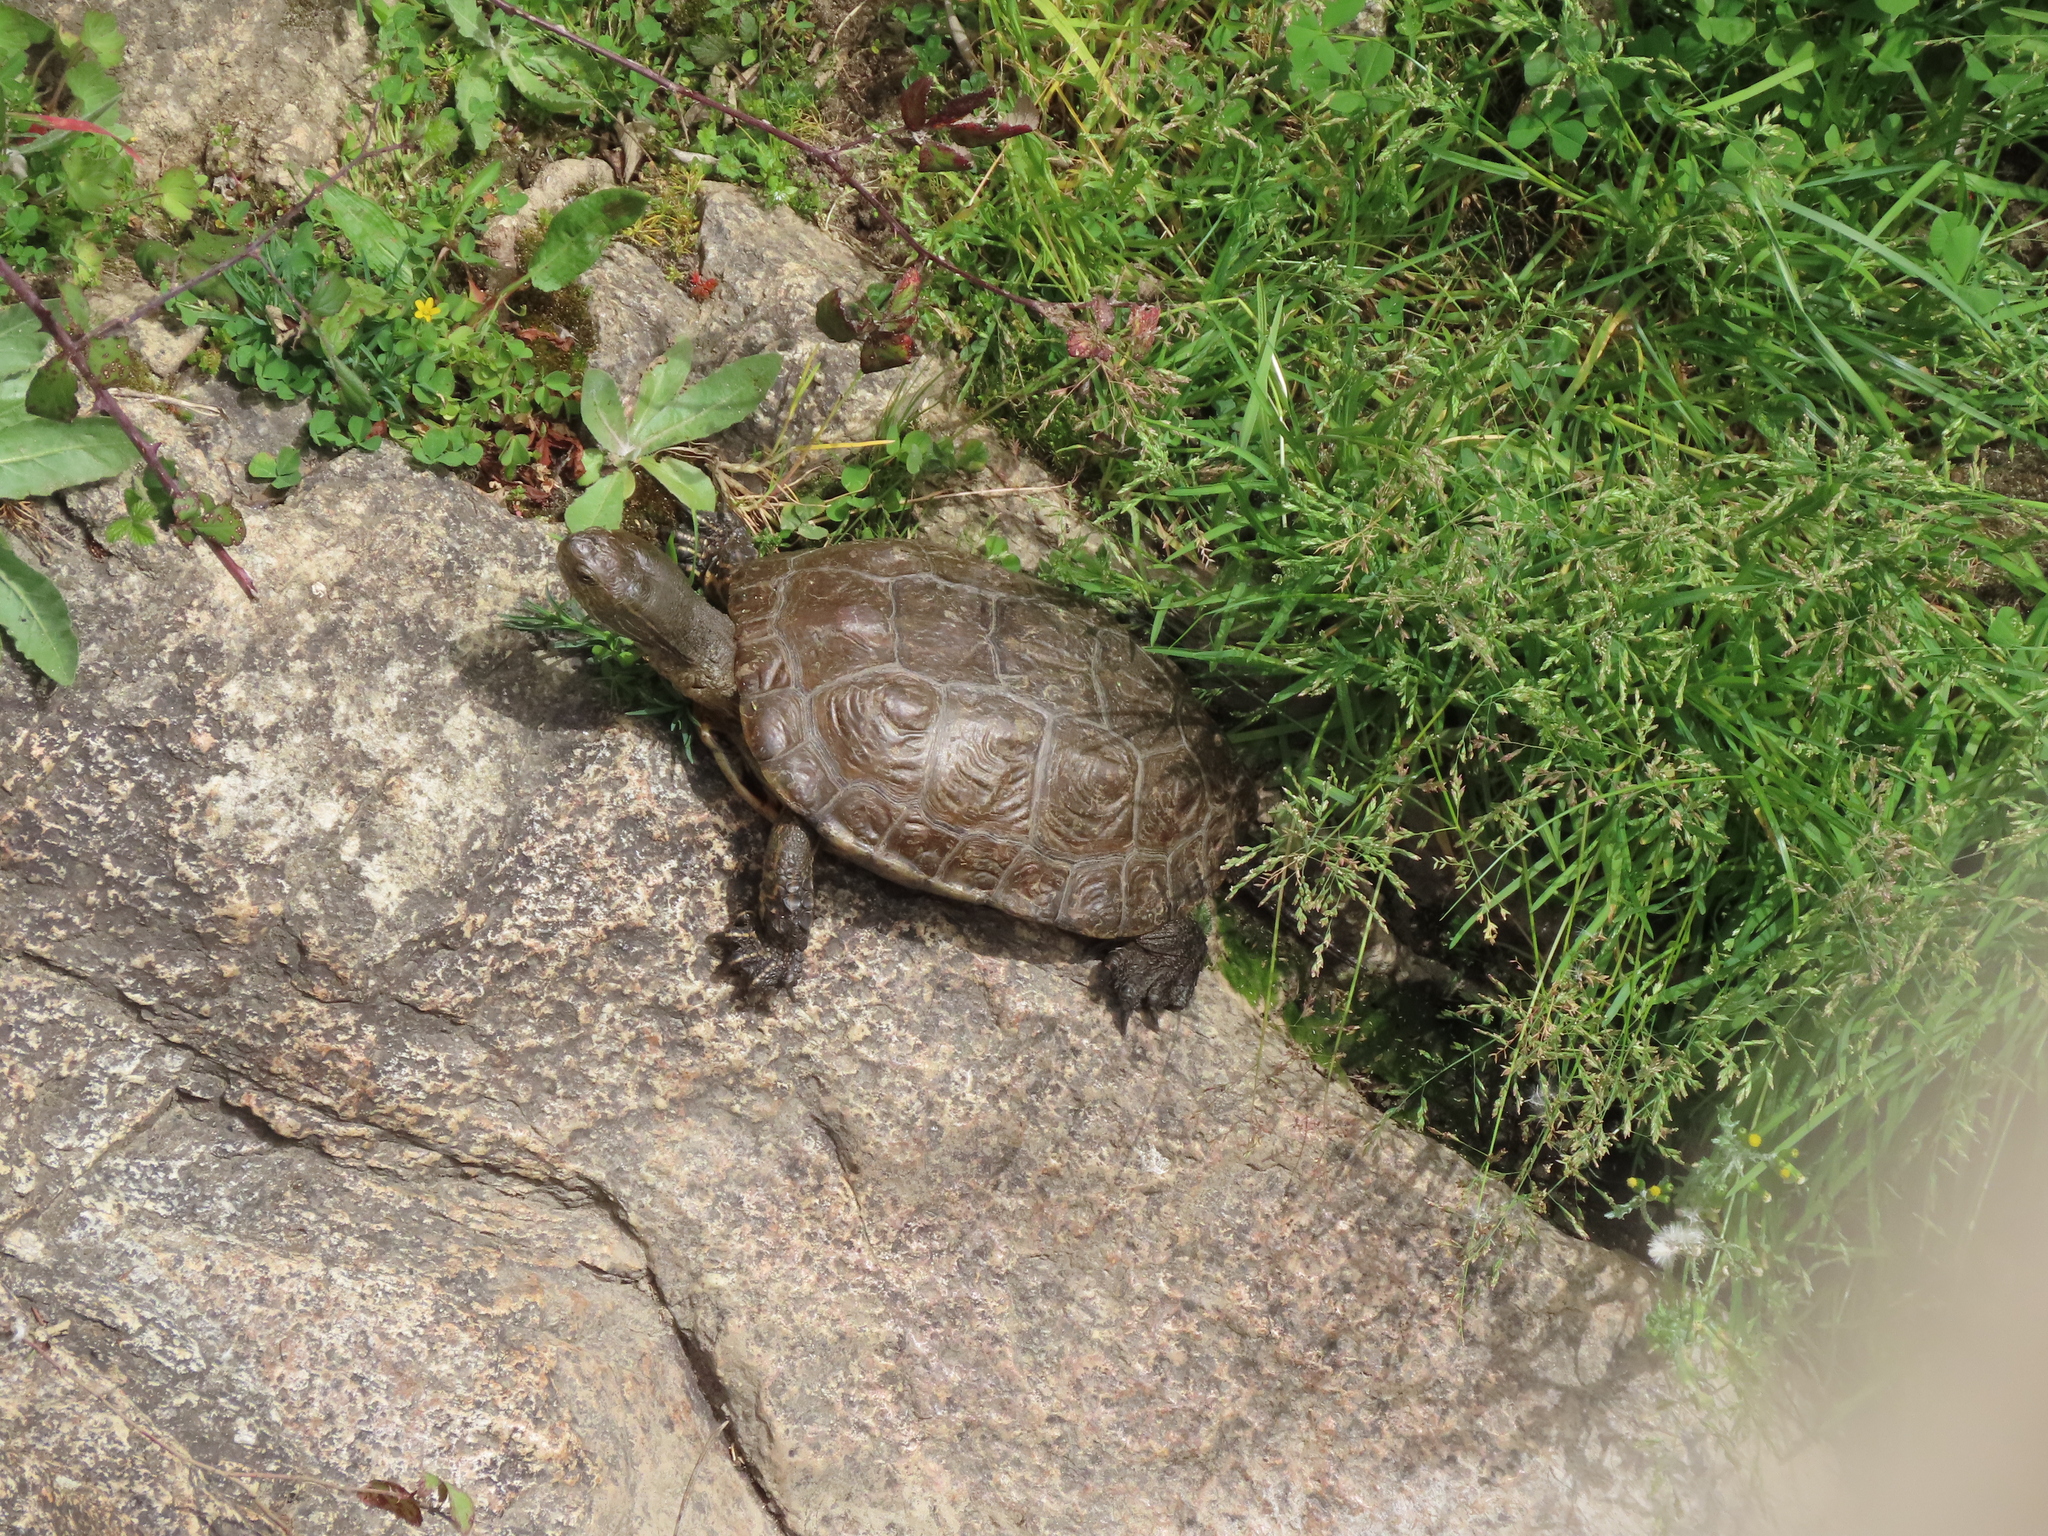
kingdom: Animalia
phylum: Chordata
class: Testudines
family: Geoemydidae
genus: Mauremys
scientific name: Mauremys leprosa
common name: Mediterranean pond turtle
